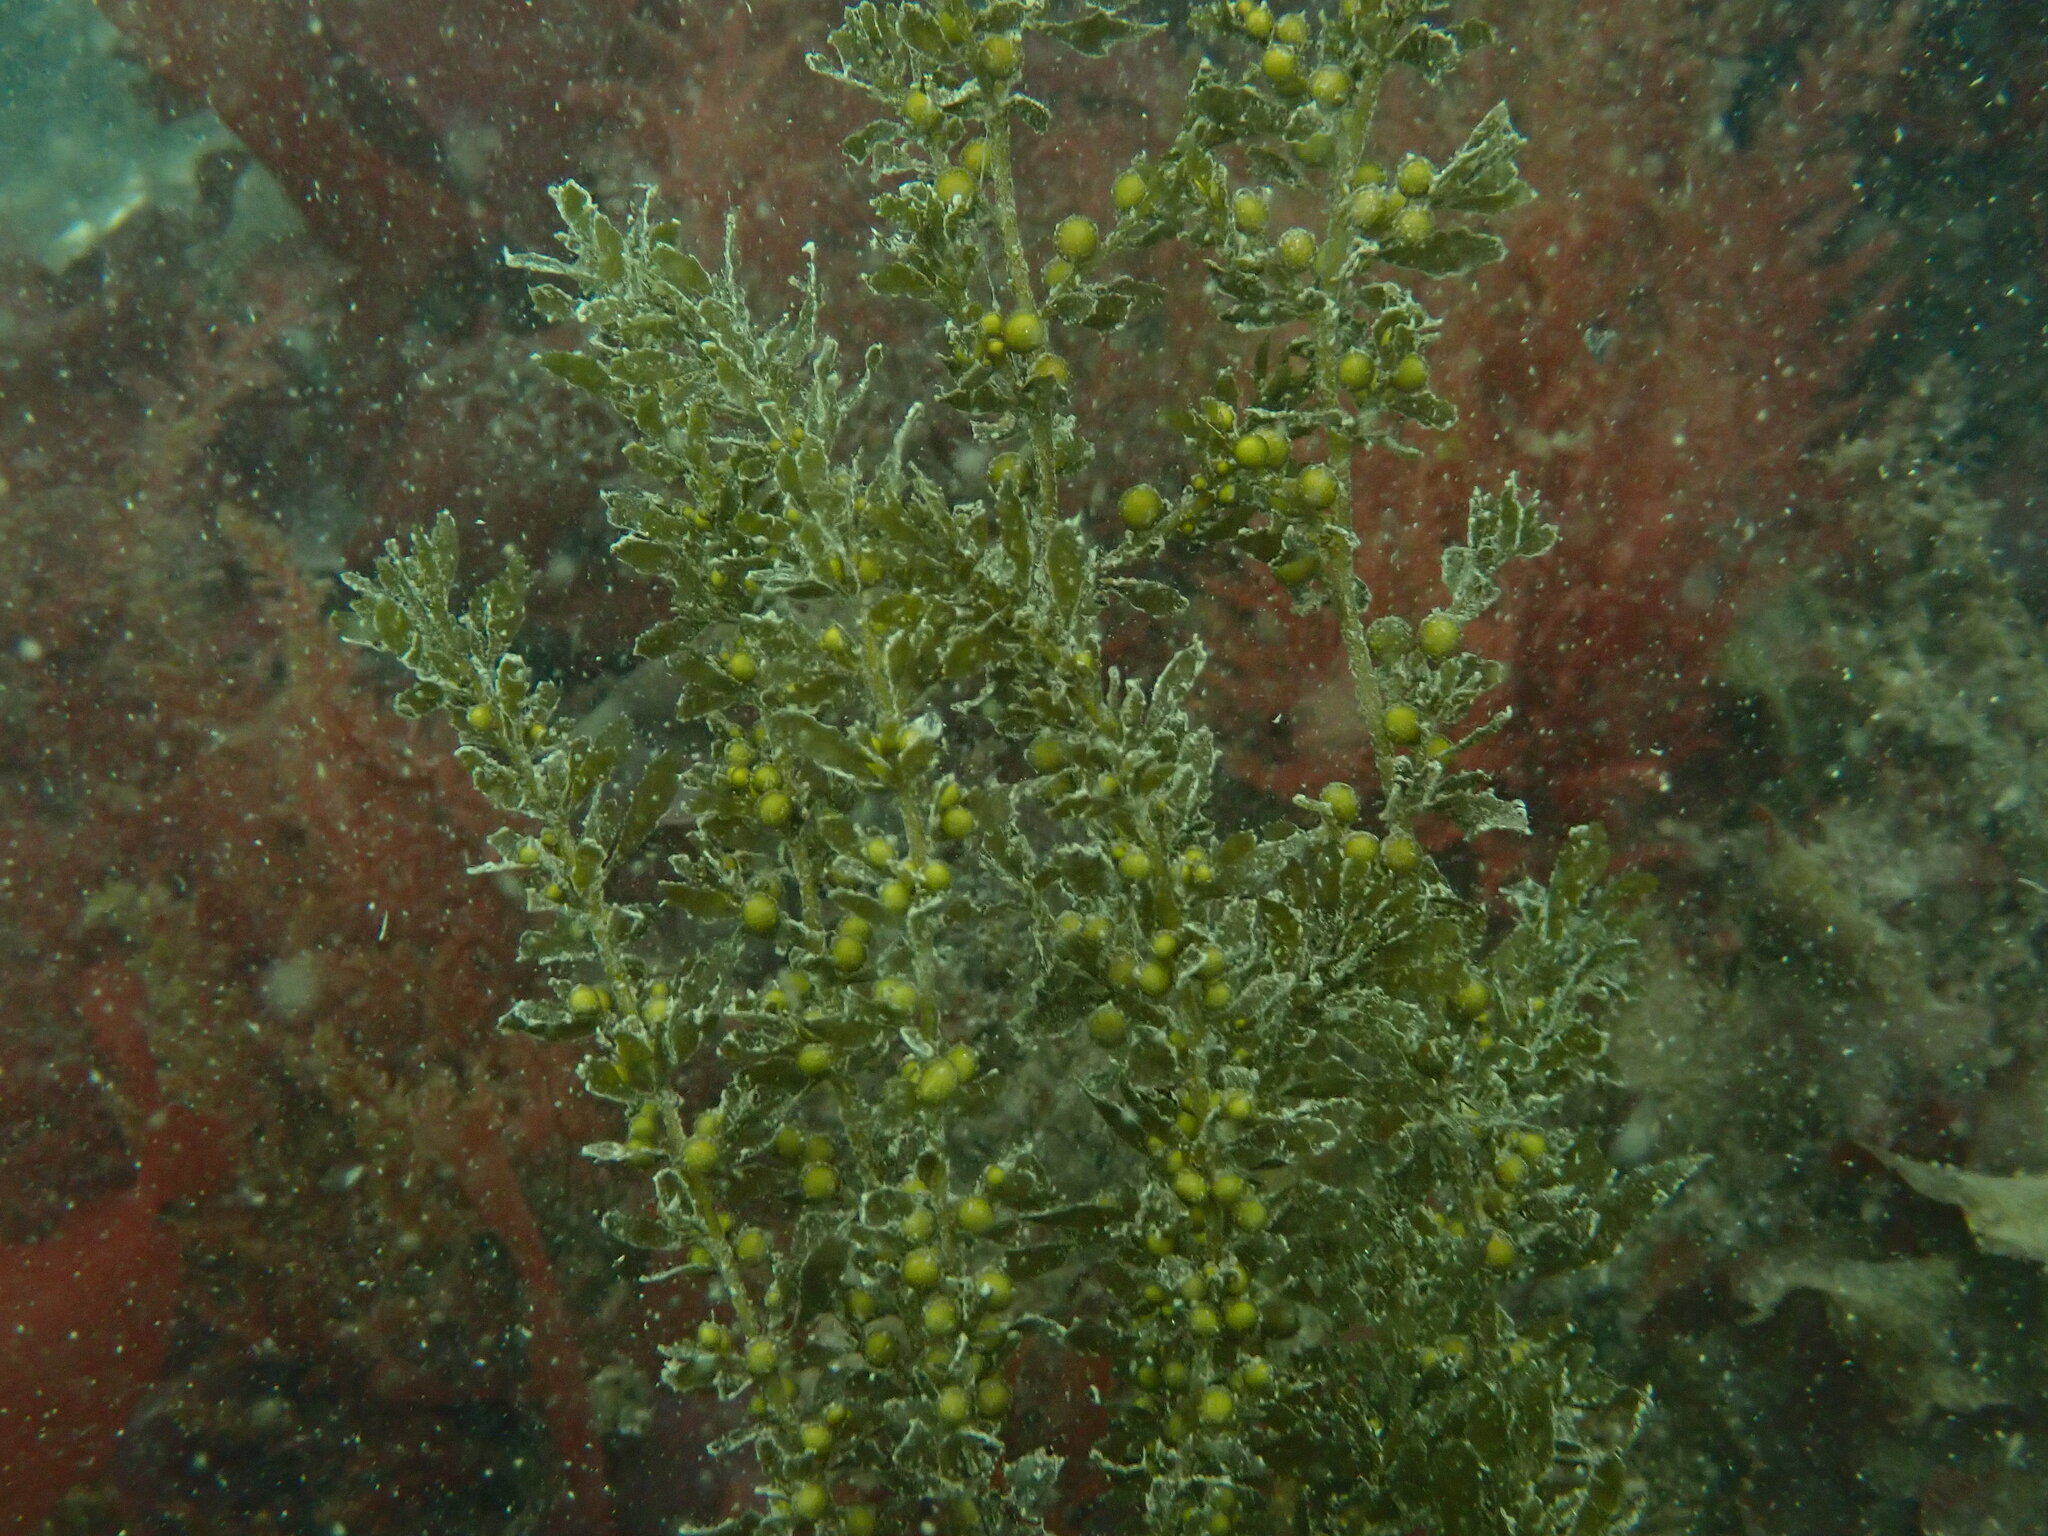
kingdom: Chromista
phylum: Ochrophyta
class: Phaeophyceae
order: Fucales
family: Sargassaceae
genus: Sargassum
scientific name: Sargassum muticum
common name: Japweed
